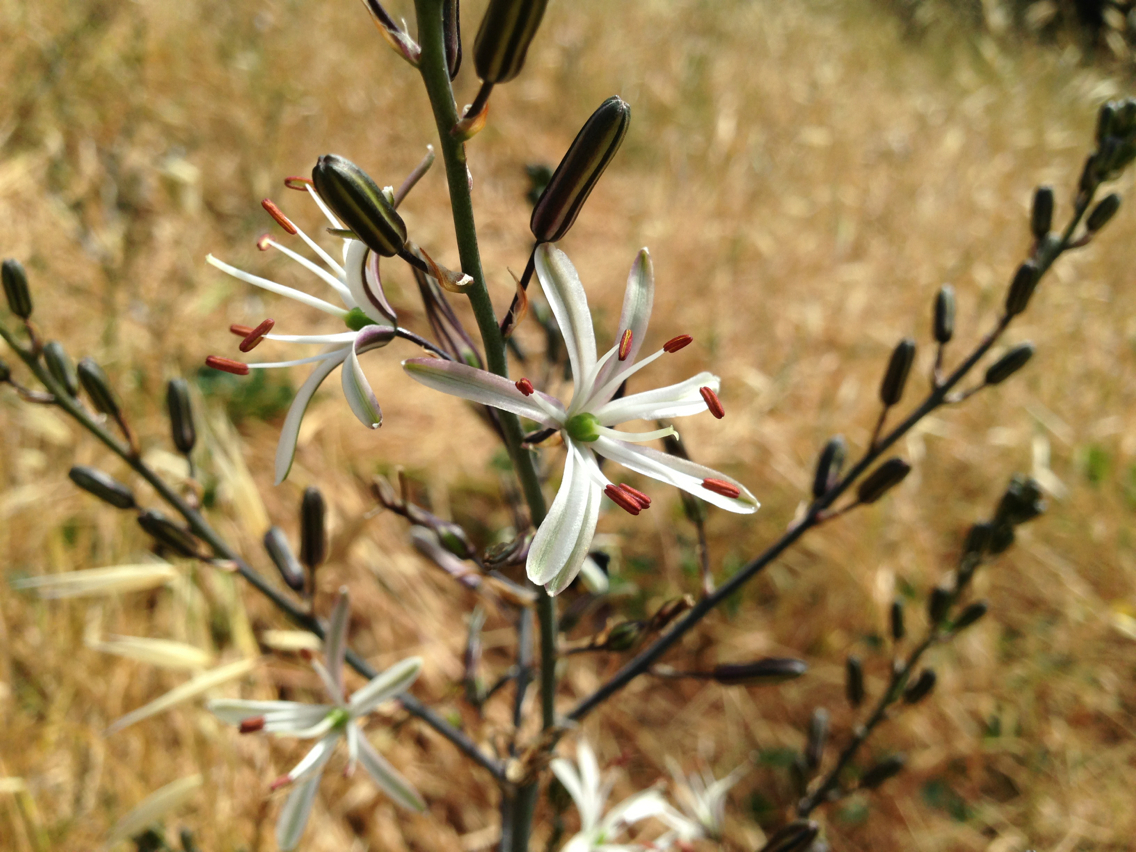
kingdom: Plantae
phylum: Tracheophyta
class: Liliopsida
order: Asparagales
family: Asparagaceae
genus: Chlorogalum
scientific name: Chlorogalum pomeridianum
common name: Amole
